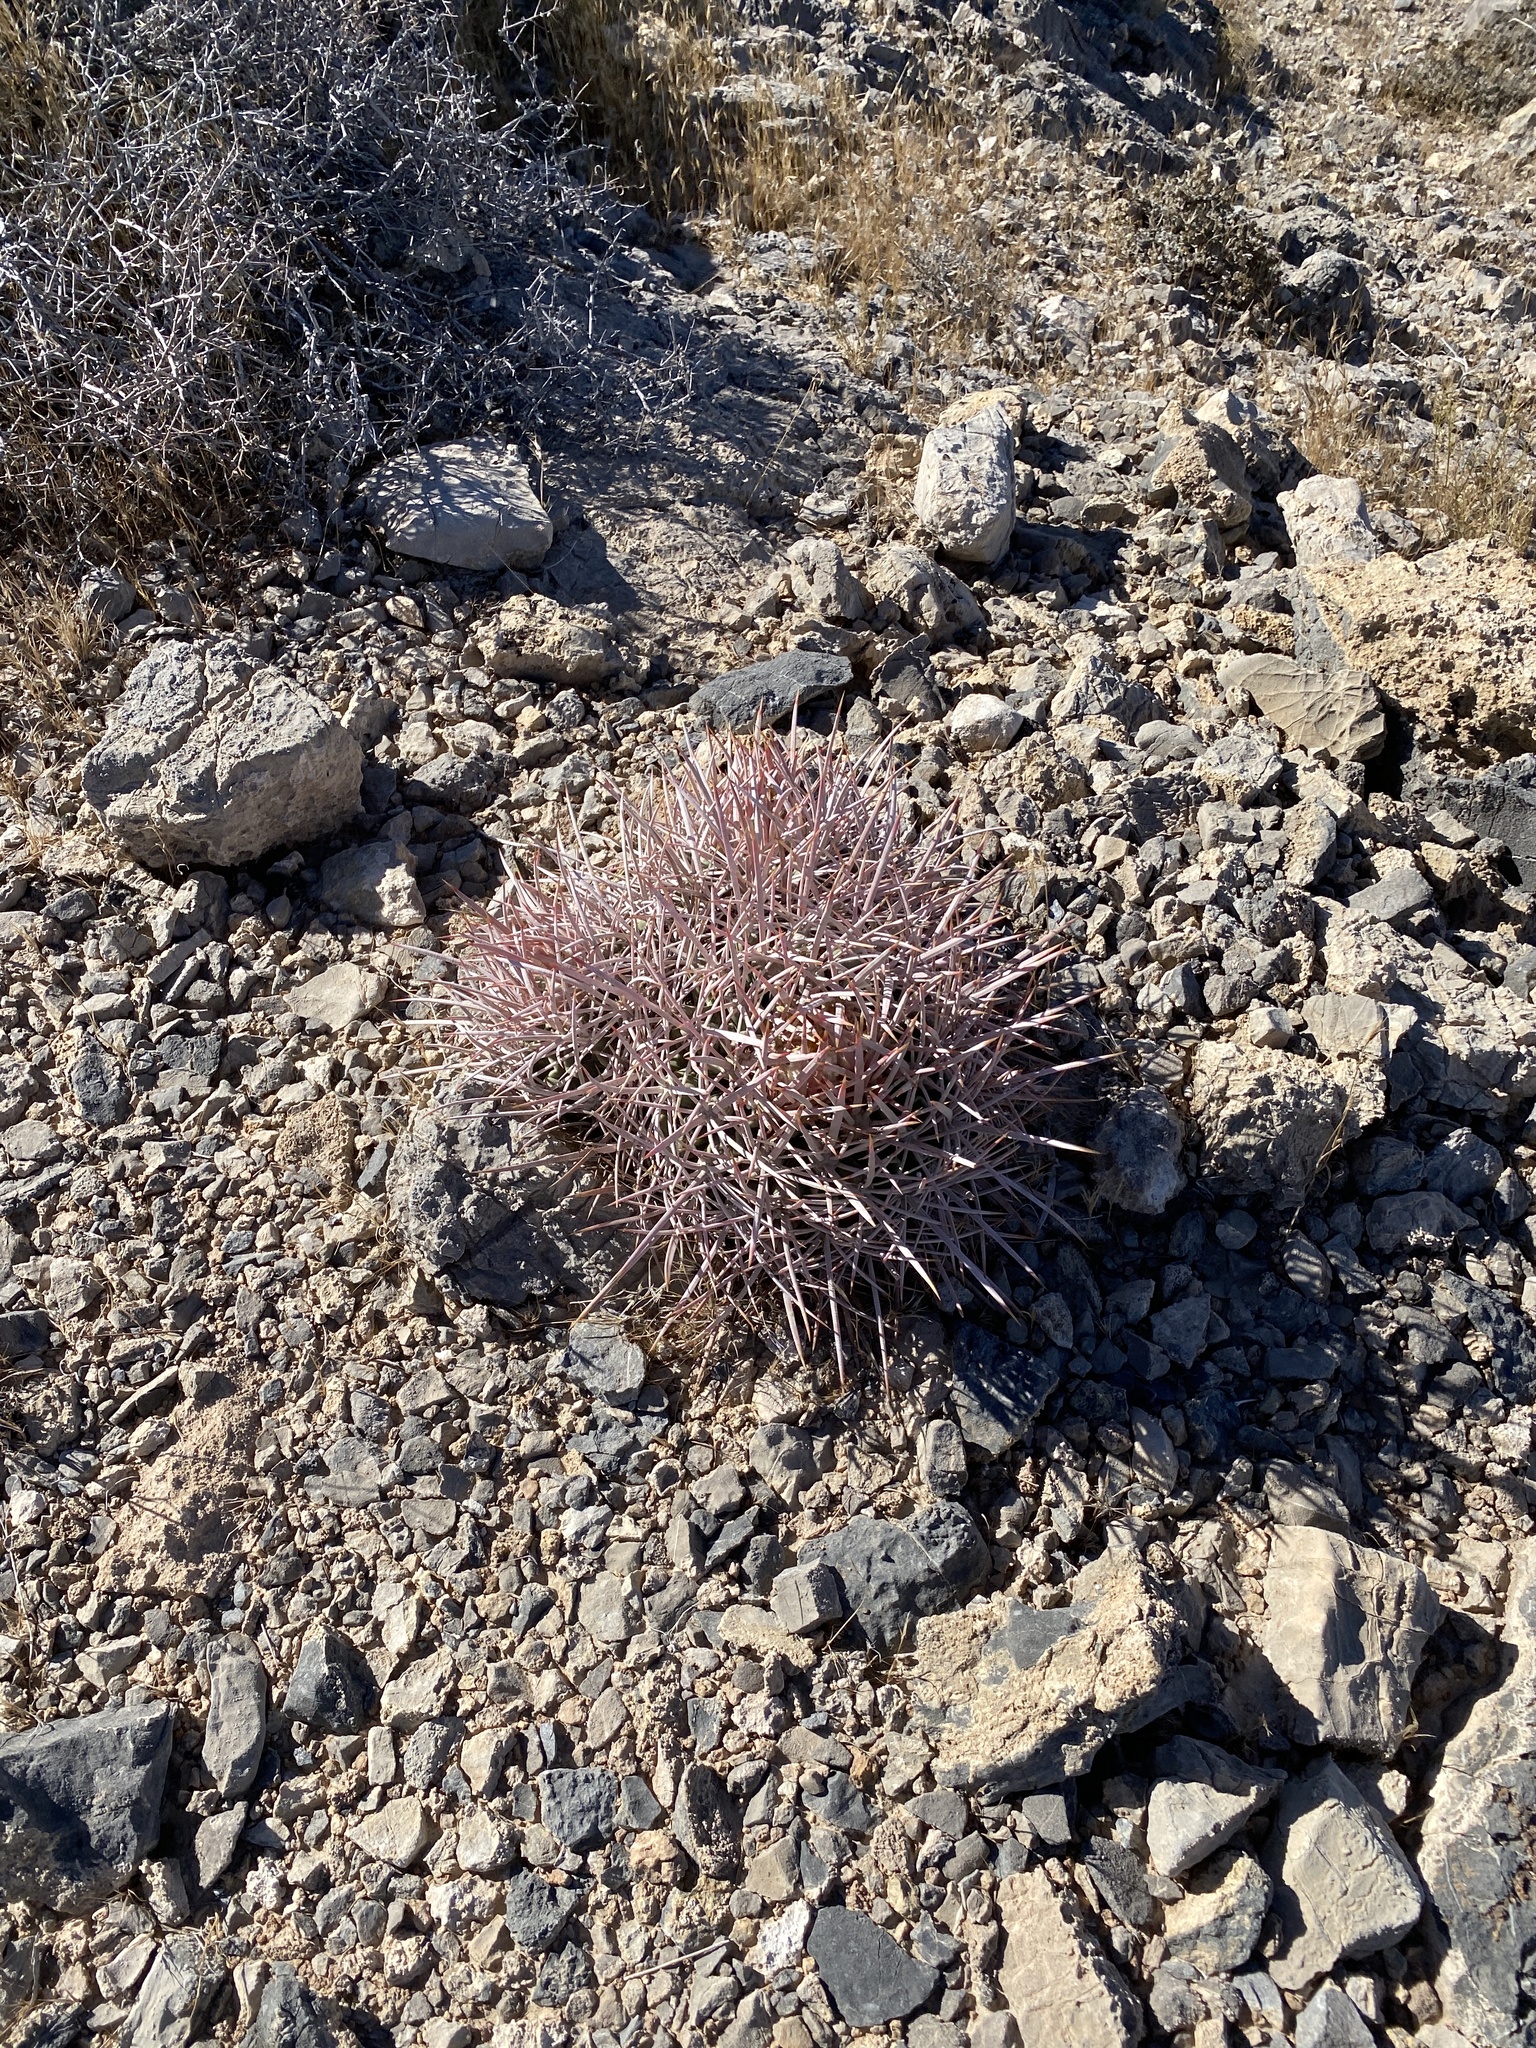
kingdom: Plantae
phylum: Tracheophyta
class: Magnoliopsida
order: Caryophyllales
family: Cactaceae
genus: Echinocactus
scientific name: Echinocactus polycephalus
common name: Cottontop cactus
